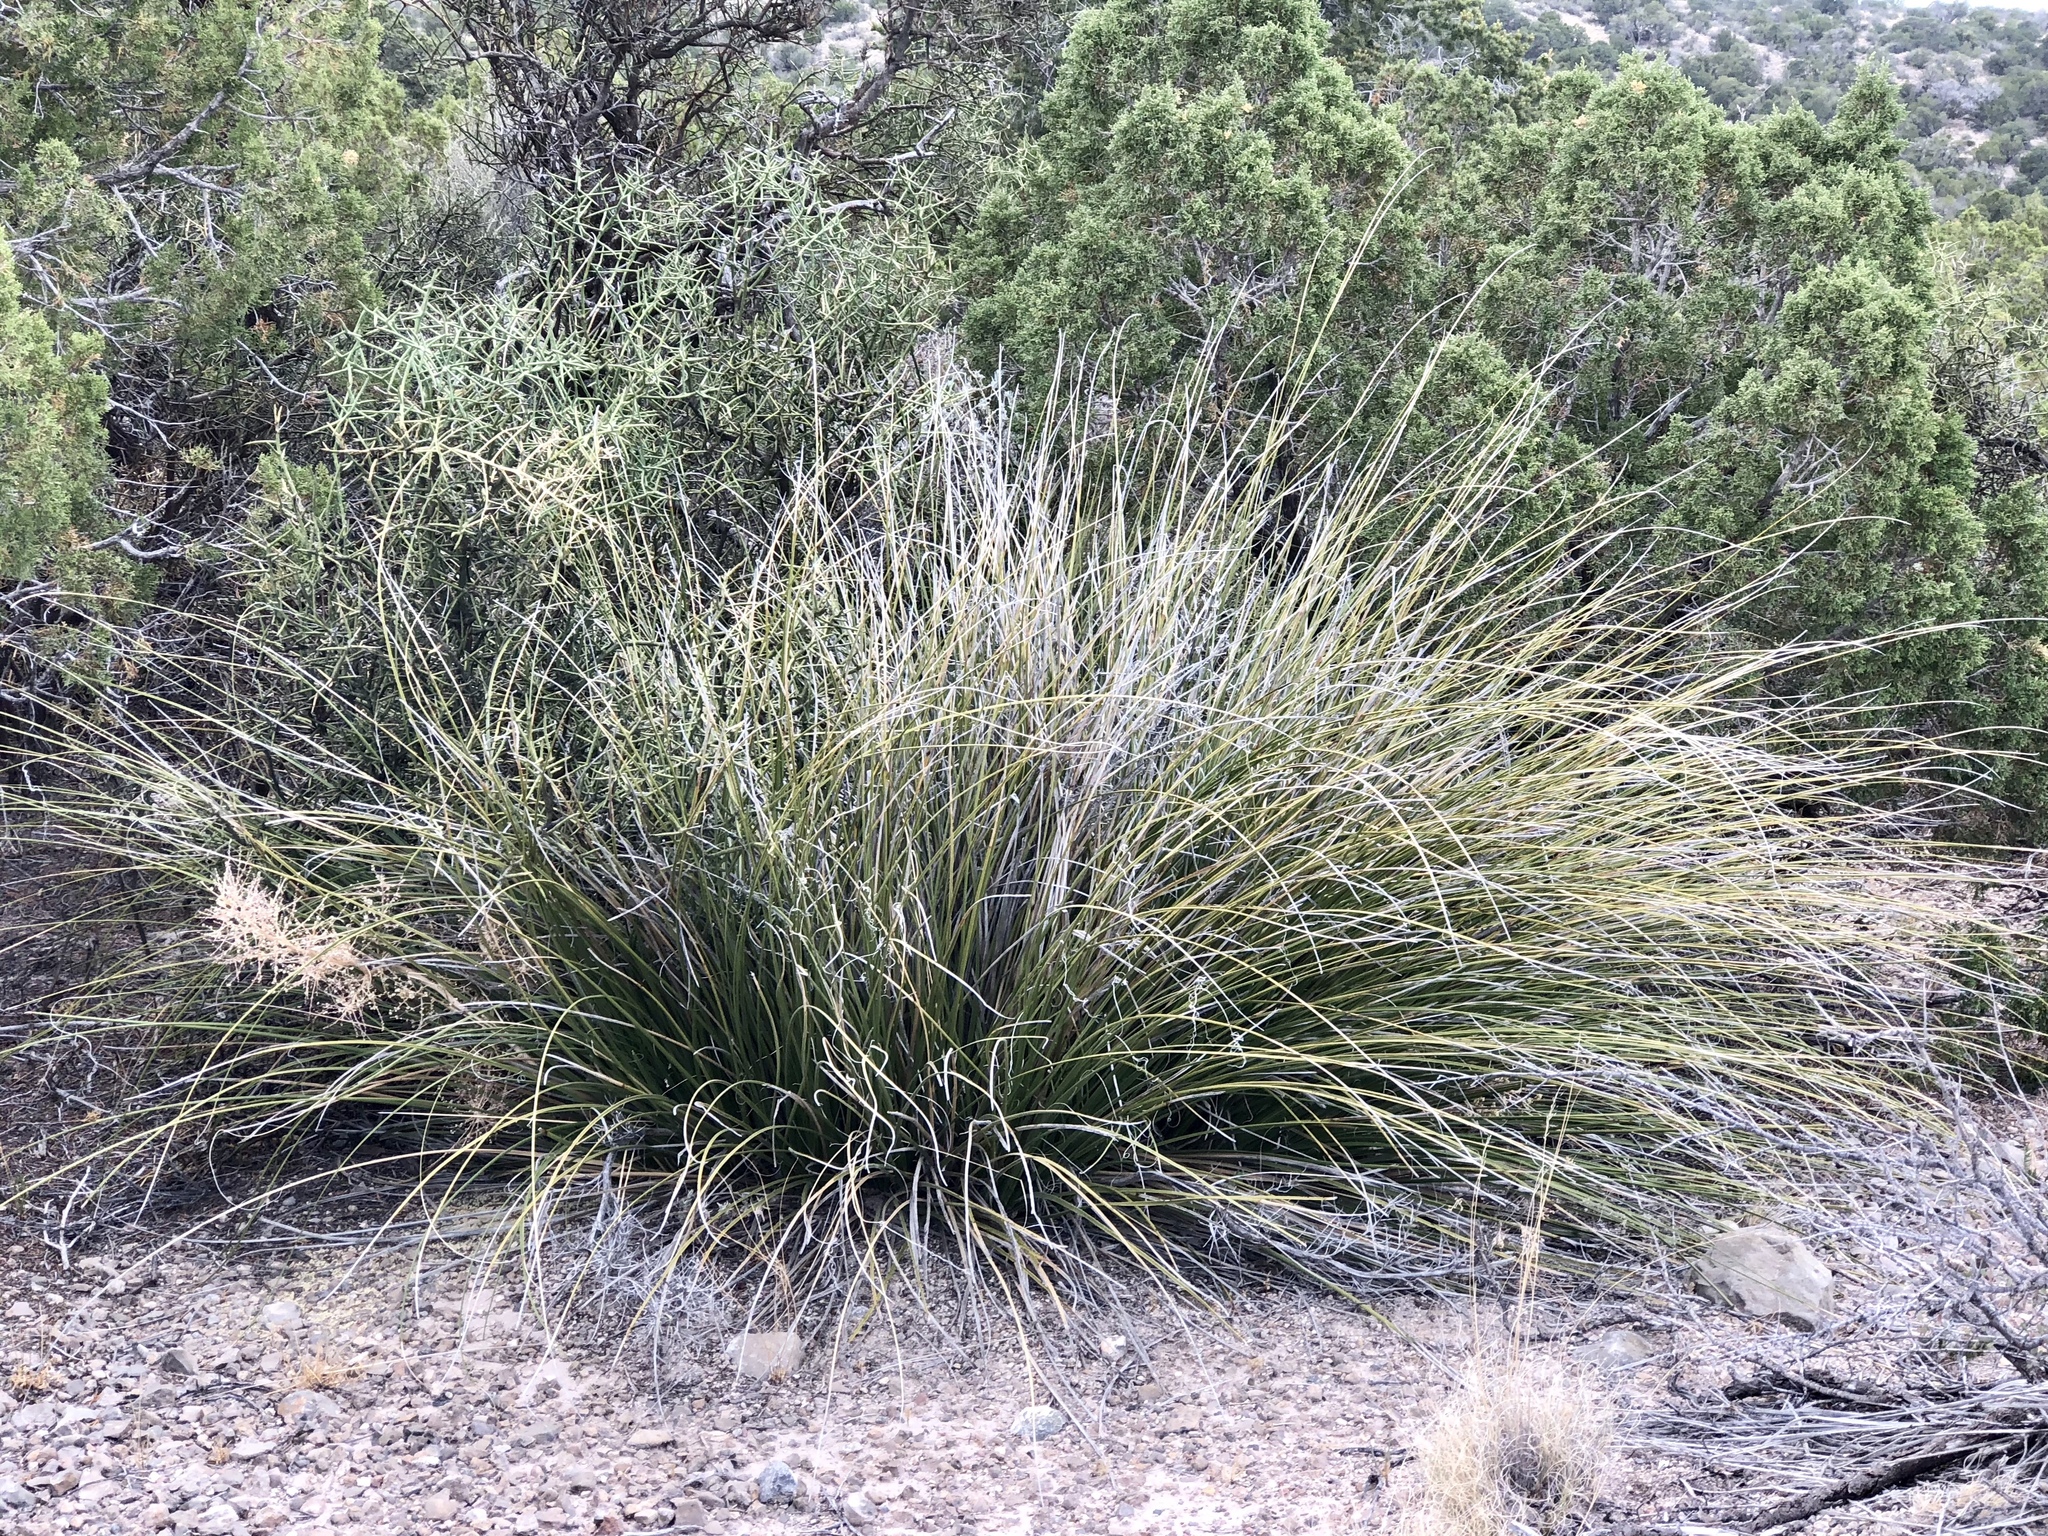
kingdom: Plantae
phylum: Tracheophyta
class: Liliopsida
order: Asparagales
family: Asparagaceae
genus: Nolina
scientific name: Nolina microcarpa
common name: Bear-grass
